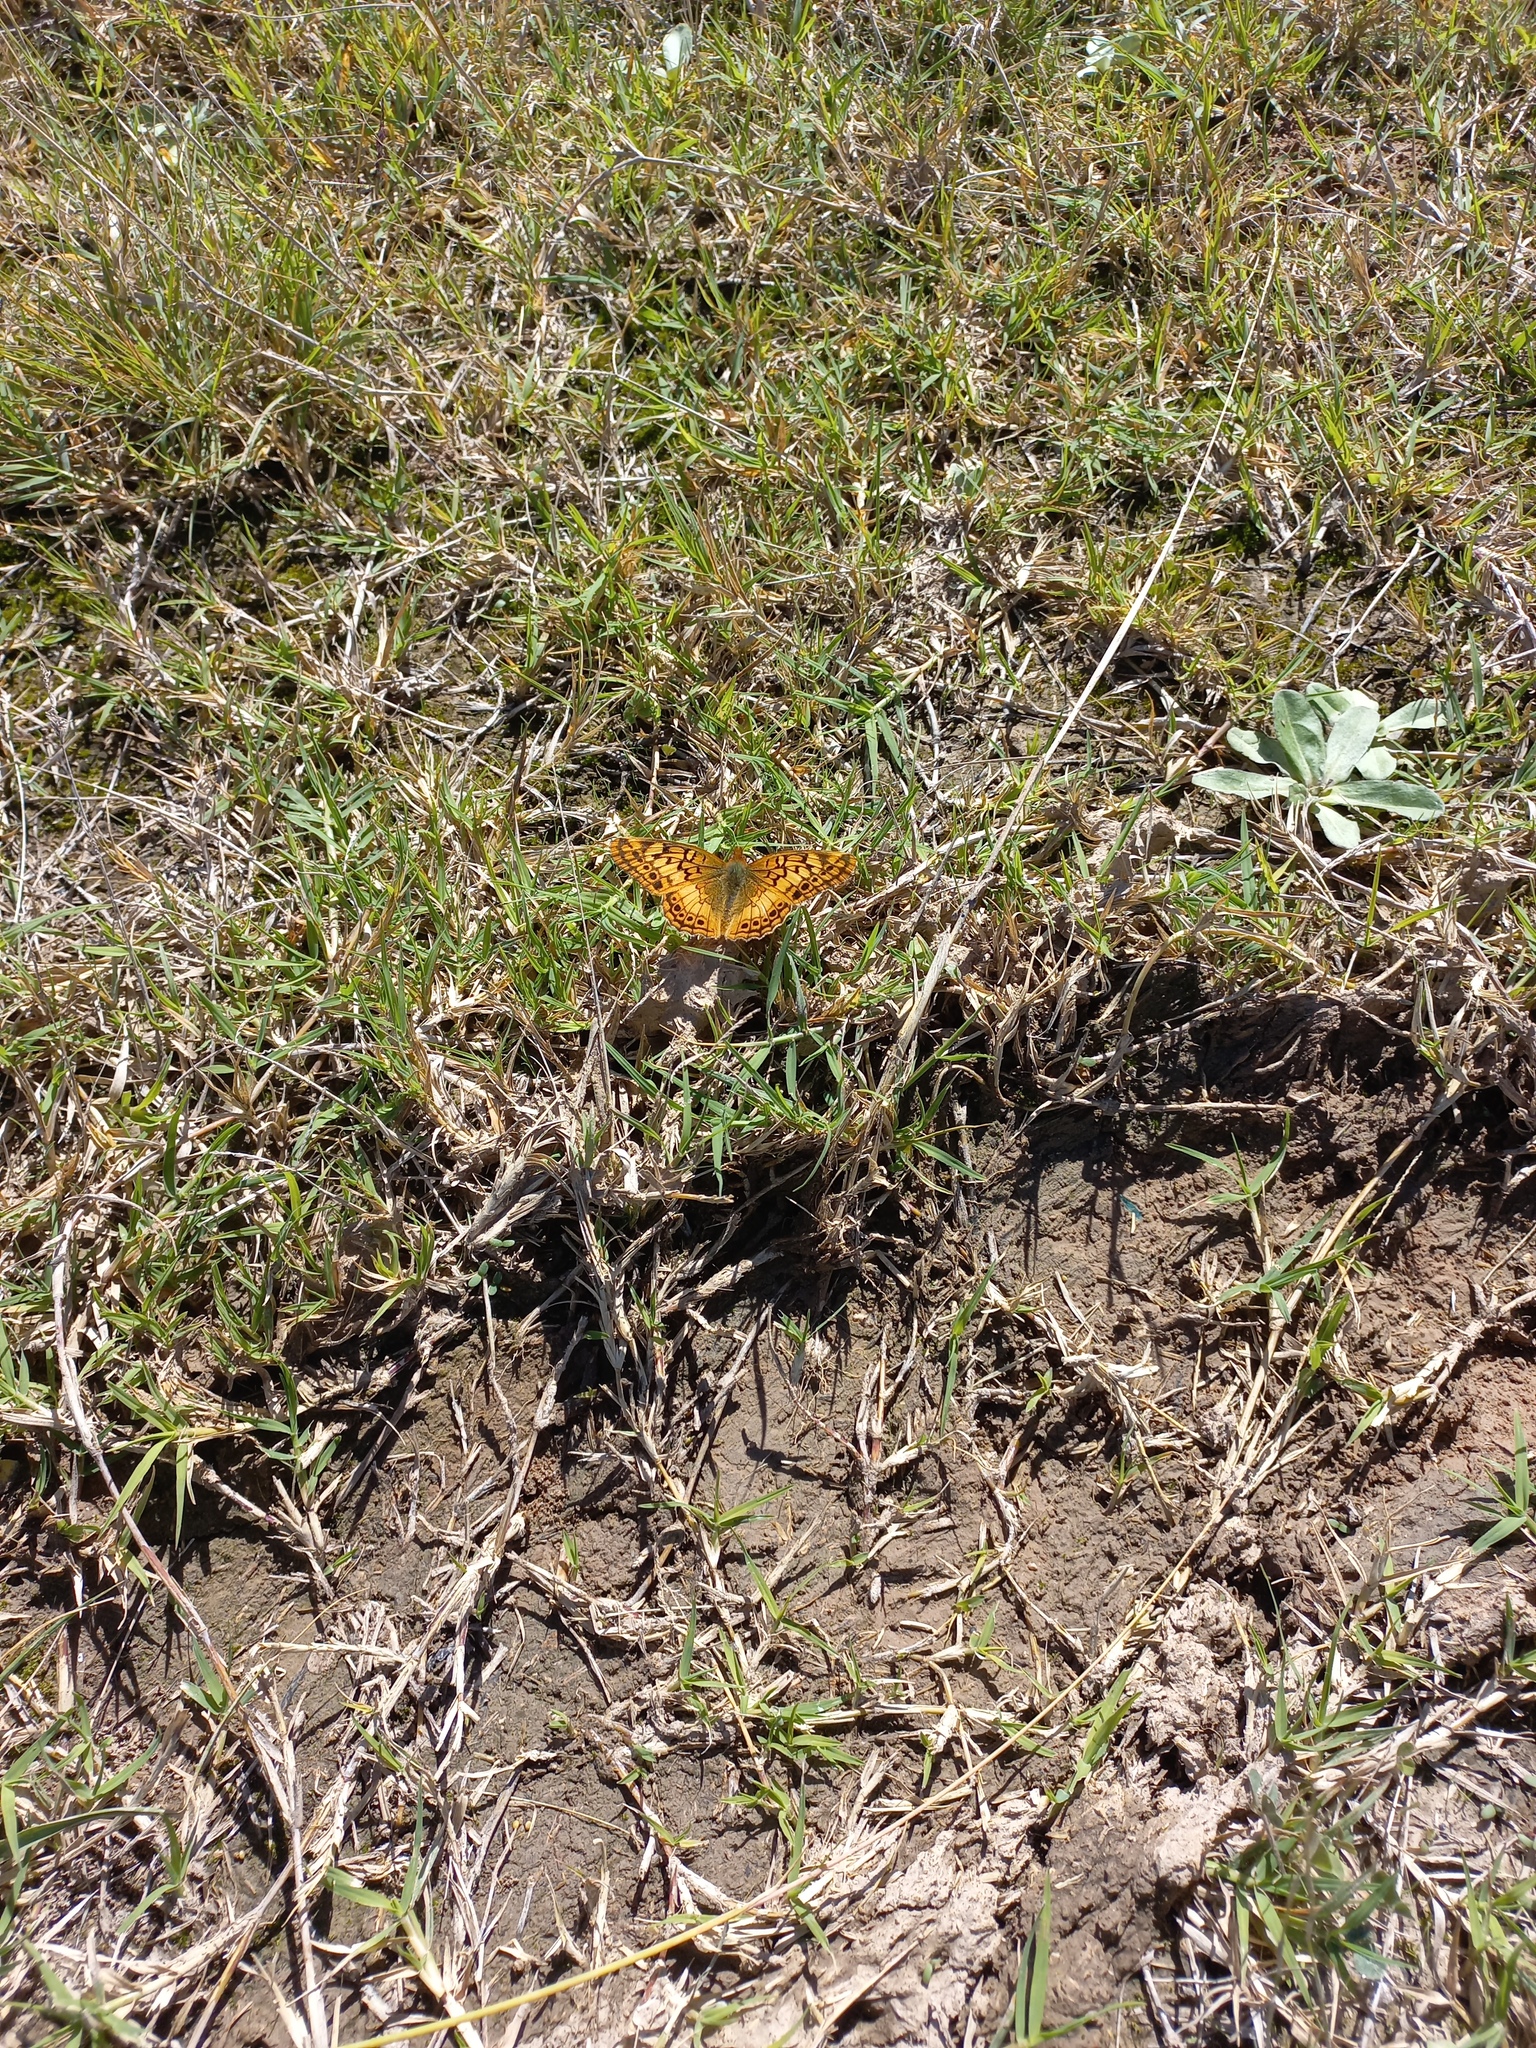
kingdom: Animalia
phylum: Arthropoda
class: Insecta
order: Lepidoptera
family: Nymphalidae
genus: Euptoieta
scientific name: Euptoieta hortensia
